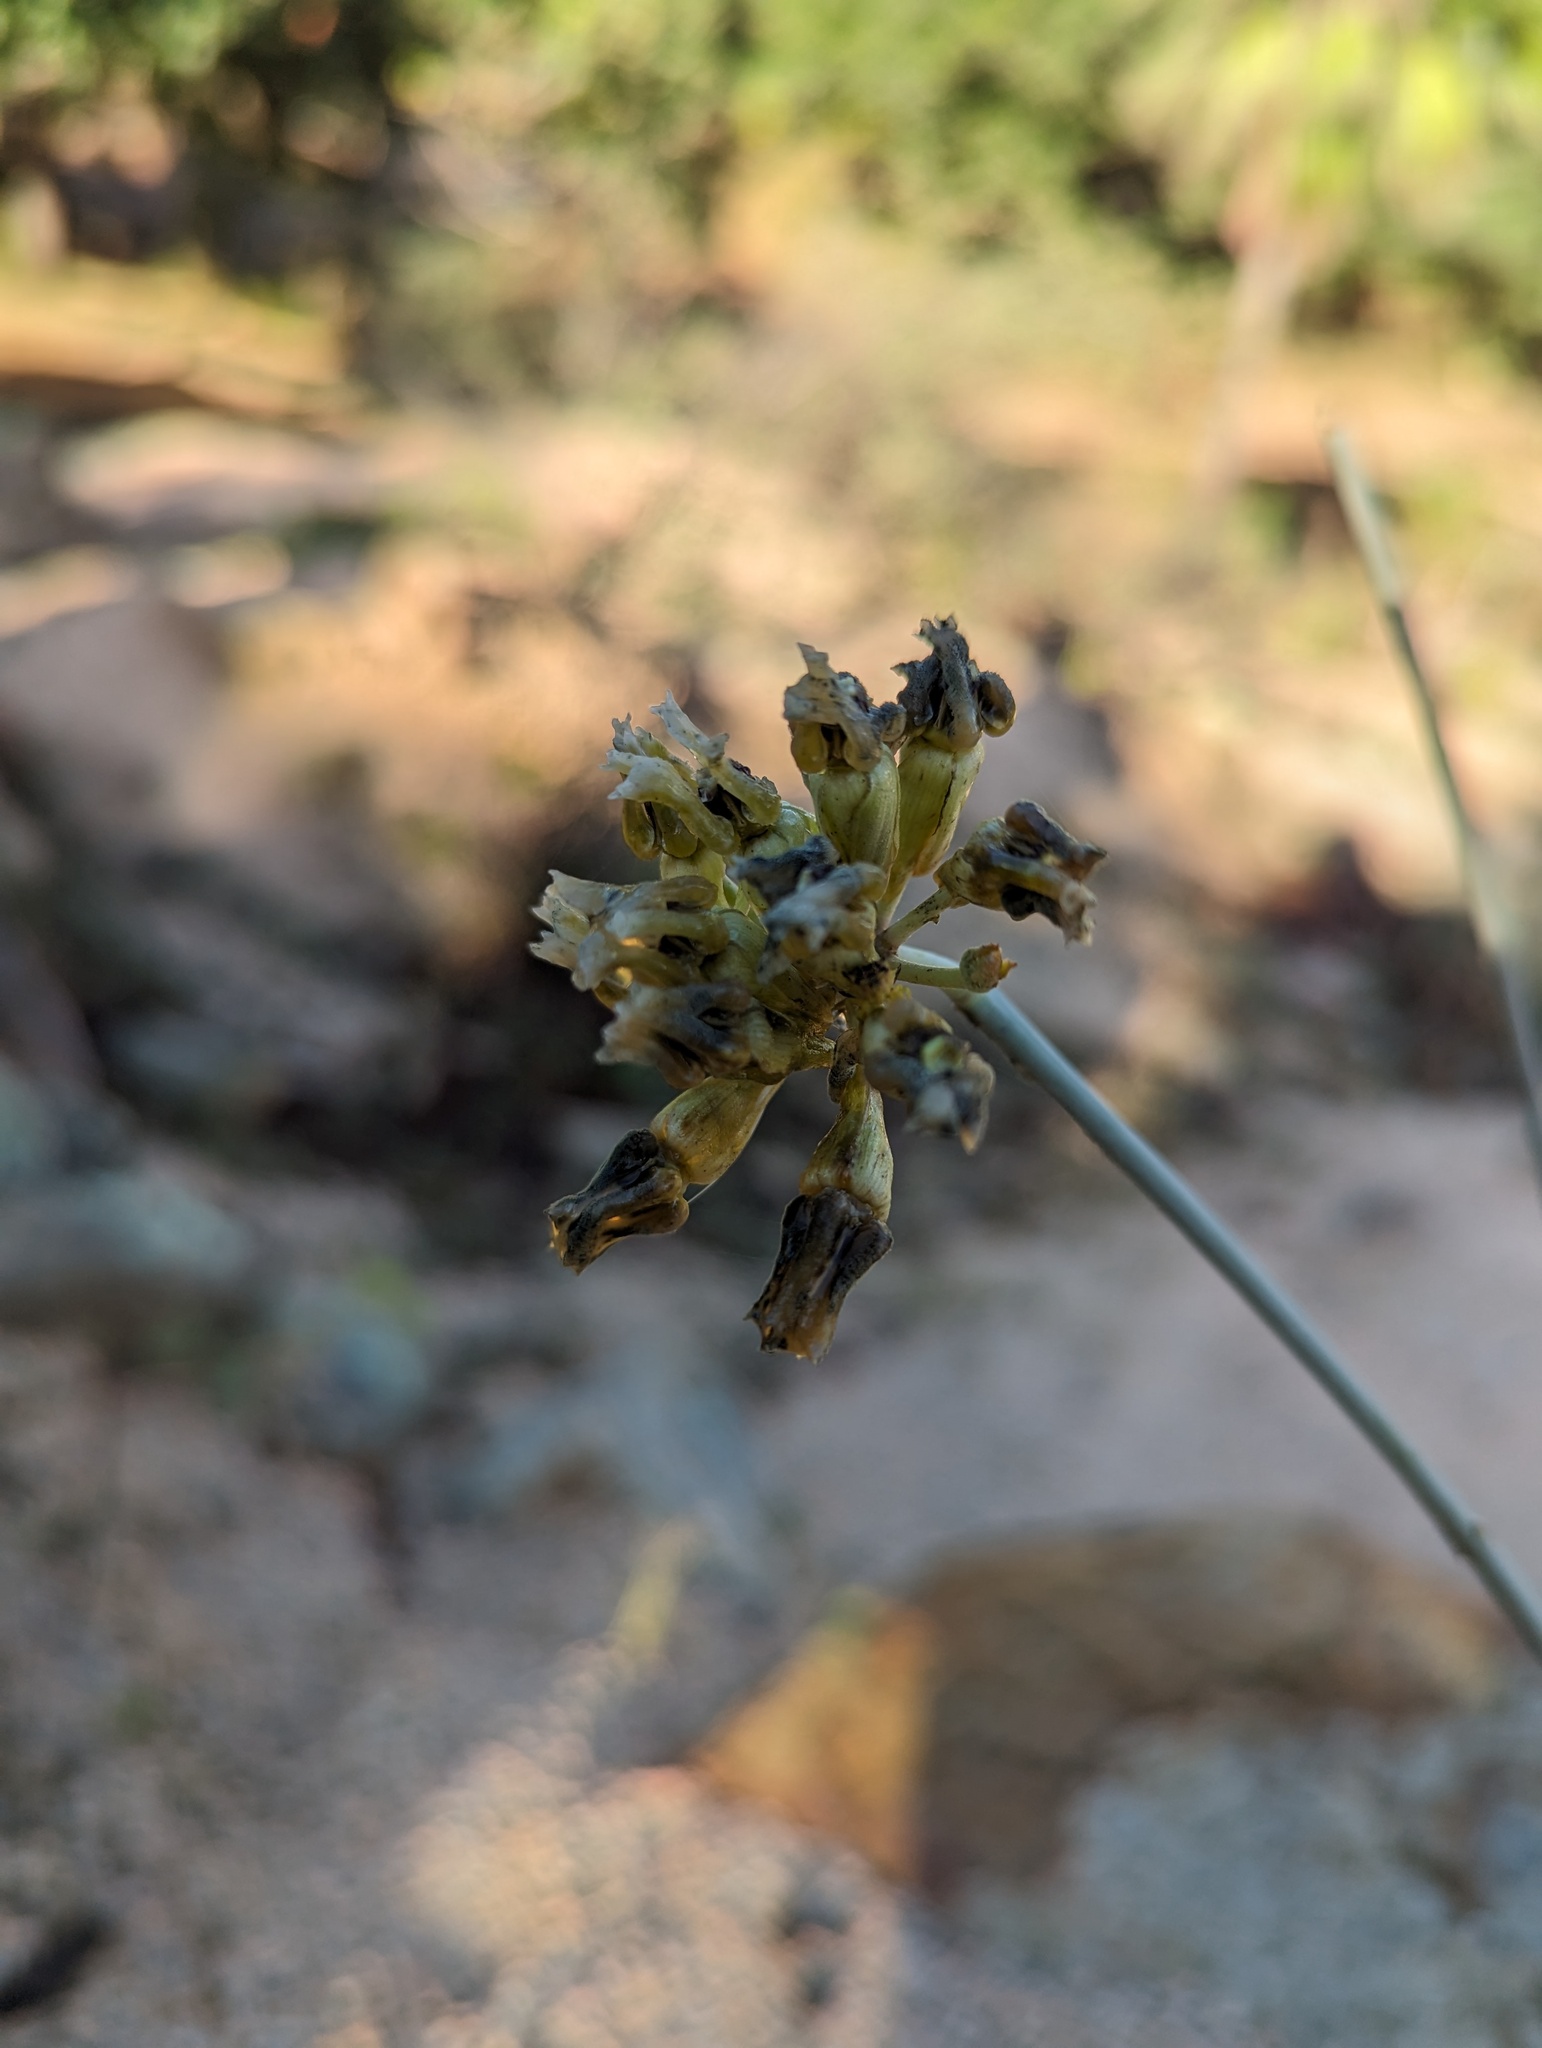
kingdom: Plantae
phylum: Tracheophyta
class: Magnoliopsida
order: Gentianales
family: Apocynaceae
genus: Asclepias
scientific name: Asclepias subulata
